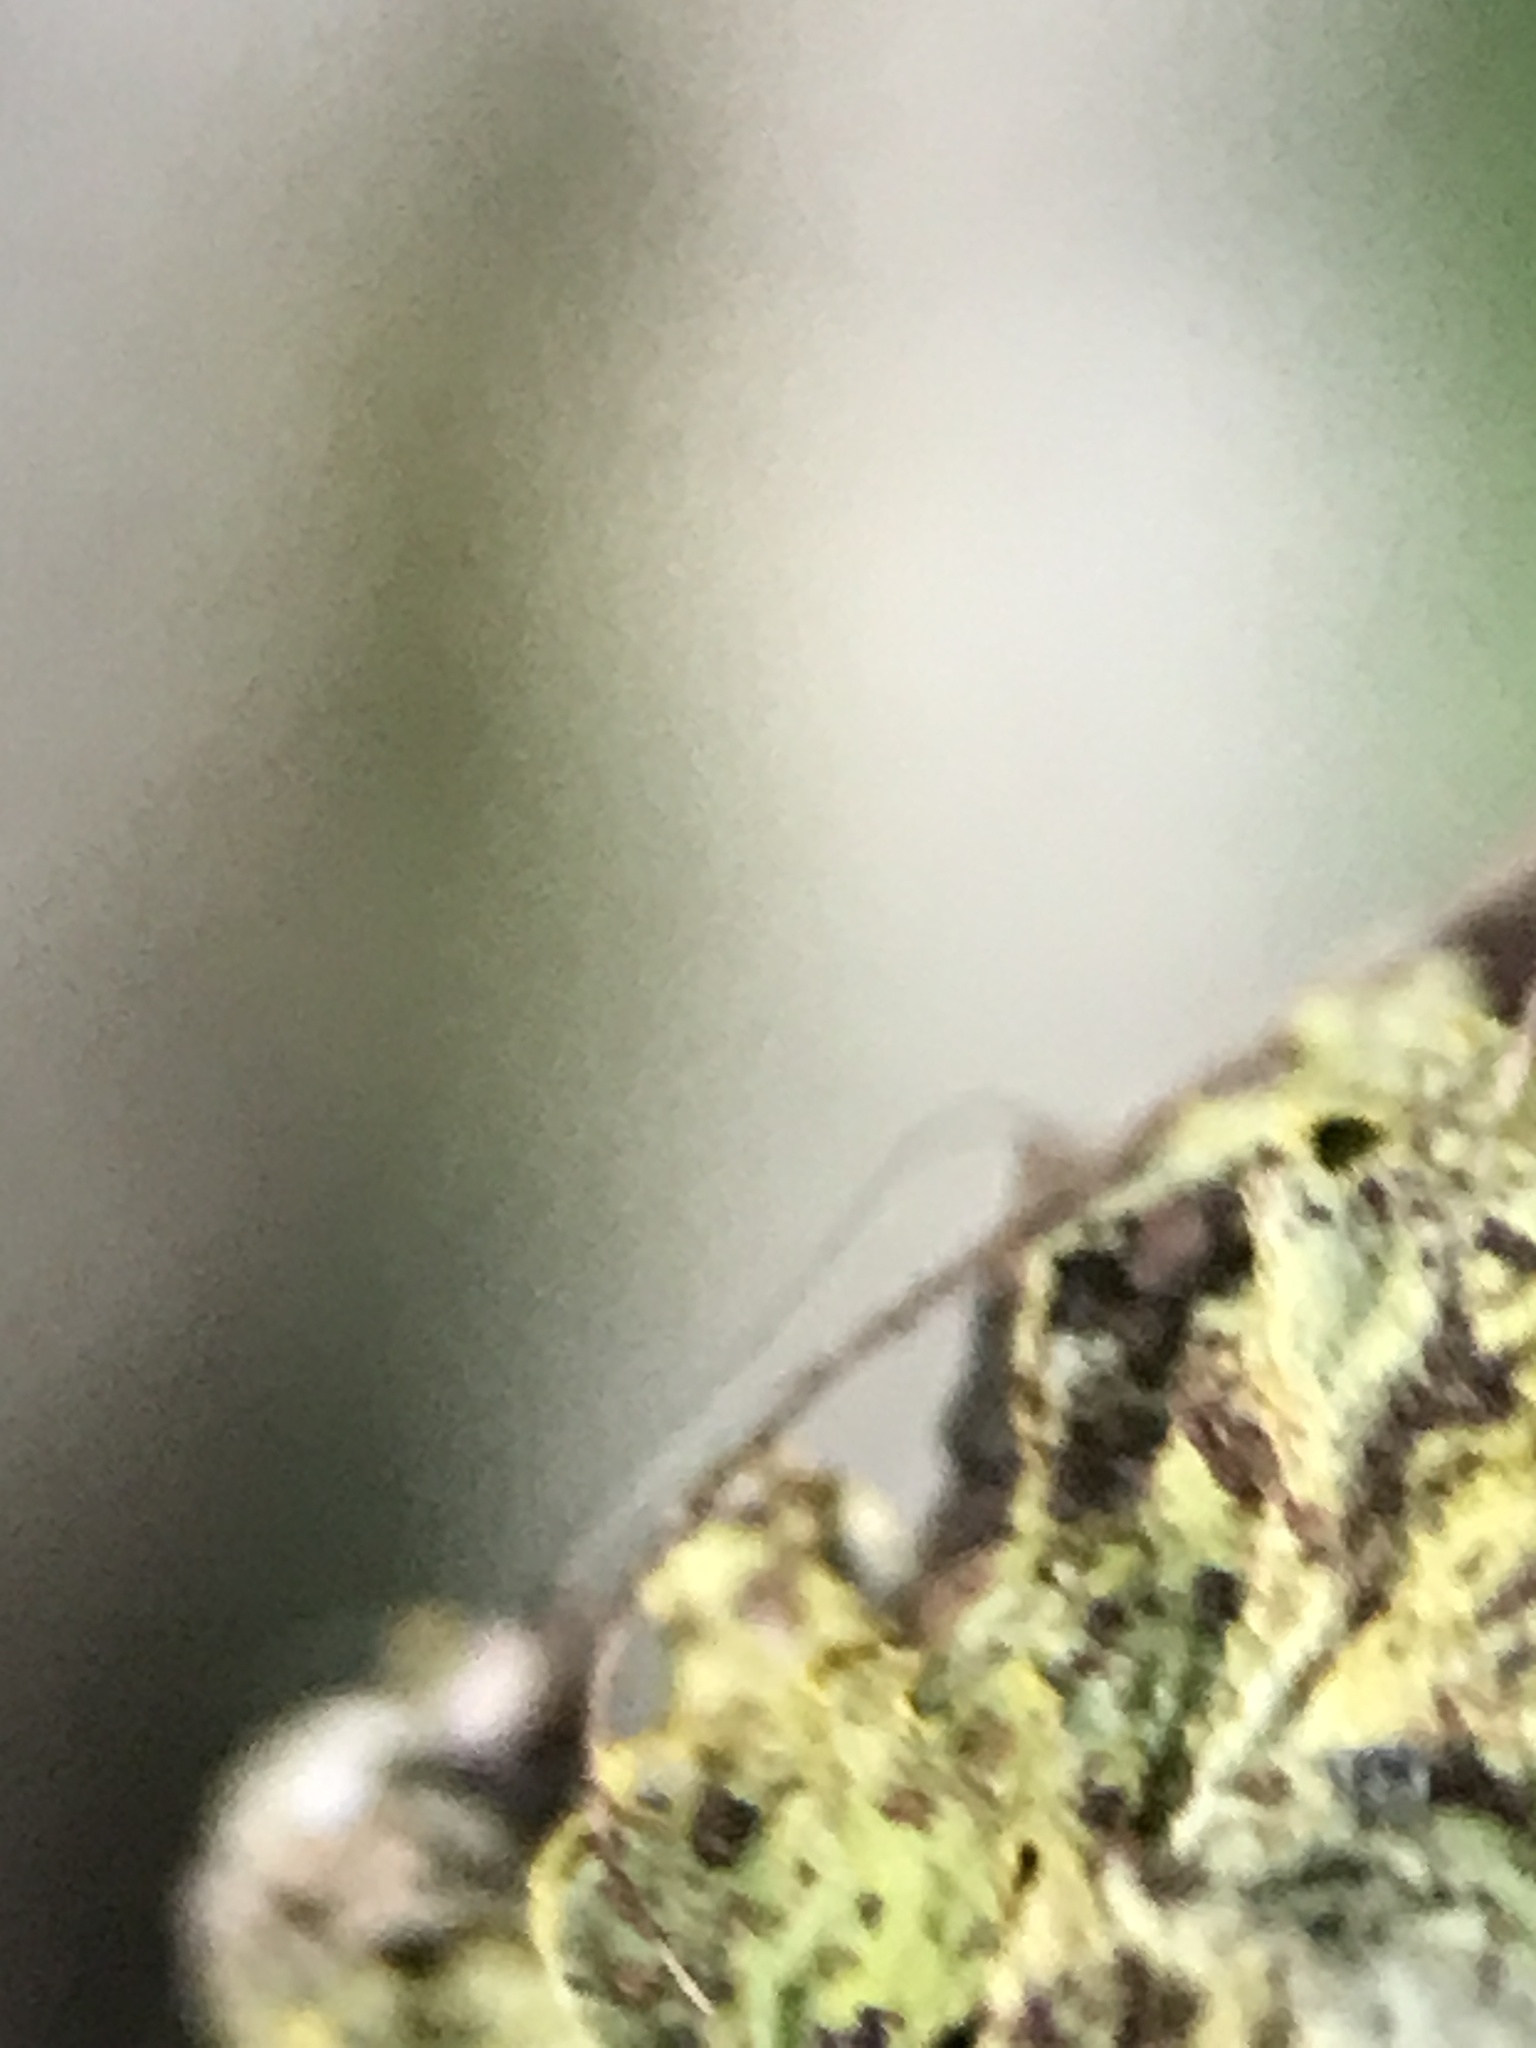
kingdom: Fungi
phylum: Ascomycota
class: Lecanoromycetes
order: Teloschistales
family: Teloschistaceae
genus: Xanthoria
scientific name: Xanthoria parietina
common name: Common orange lichen
